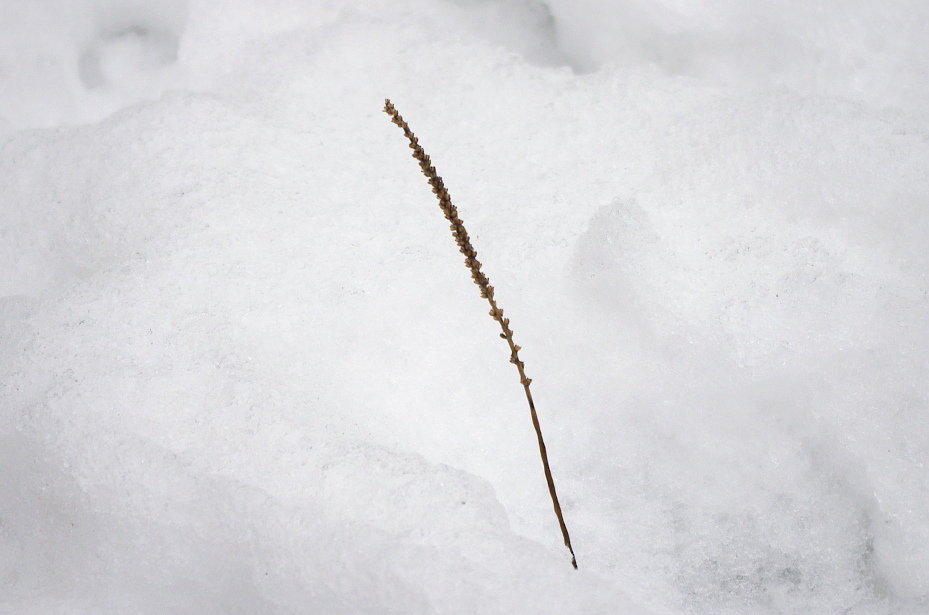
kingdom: Plantae
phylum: Tracheophyta
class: Magnoliopsida
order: Lamiales
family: Plantaginaceae
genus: Plantago
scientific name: Plantago major
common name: Common plantain
